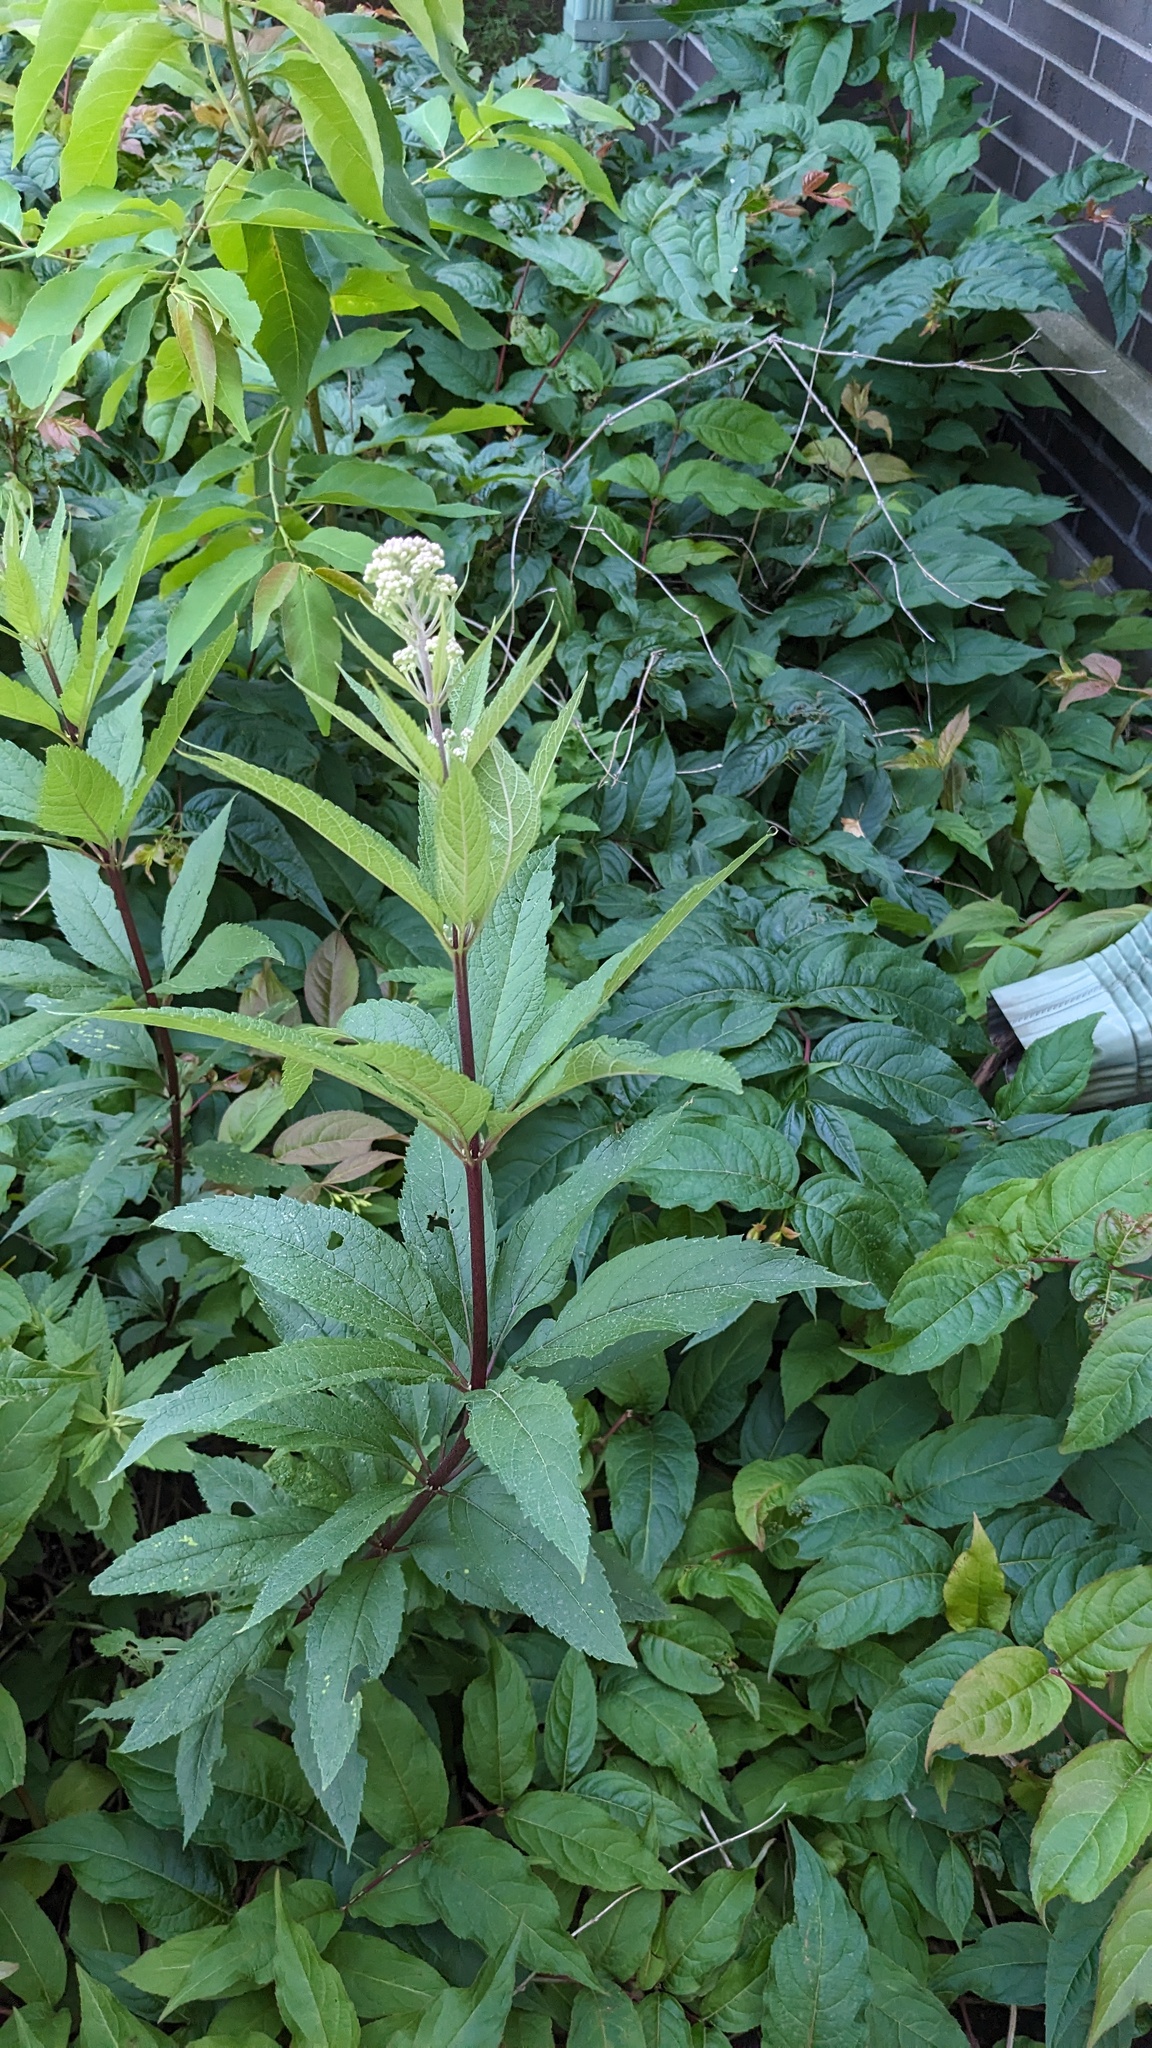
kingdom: Plantae
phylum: Tracheophyta
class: Magnoliopsida
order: Asterales
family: Asteraceae
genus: Eutrochium
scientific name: Eutrochium maculatum
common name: Spotted joe pye weed
